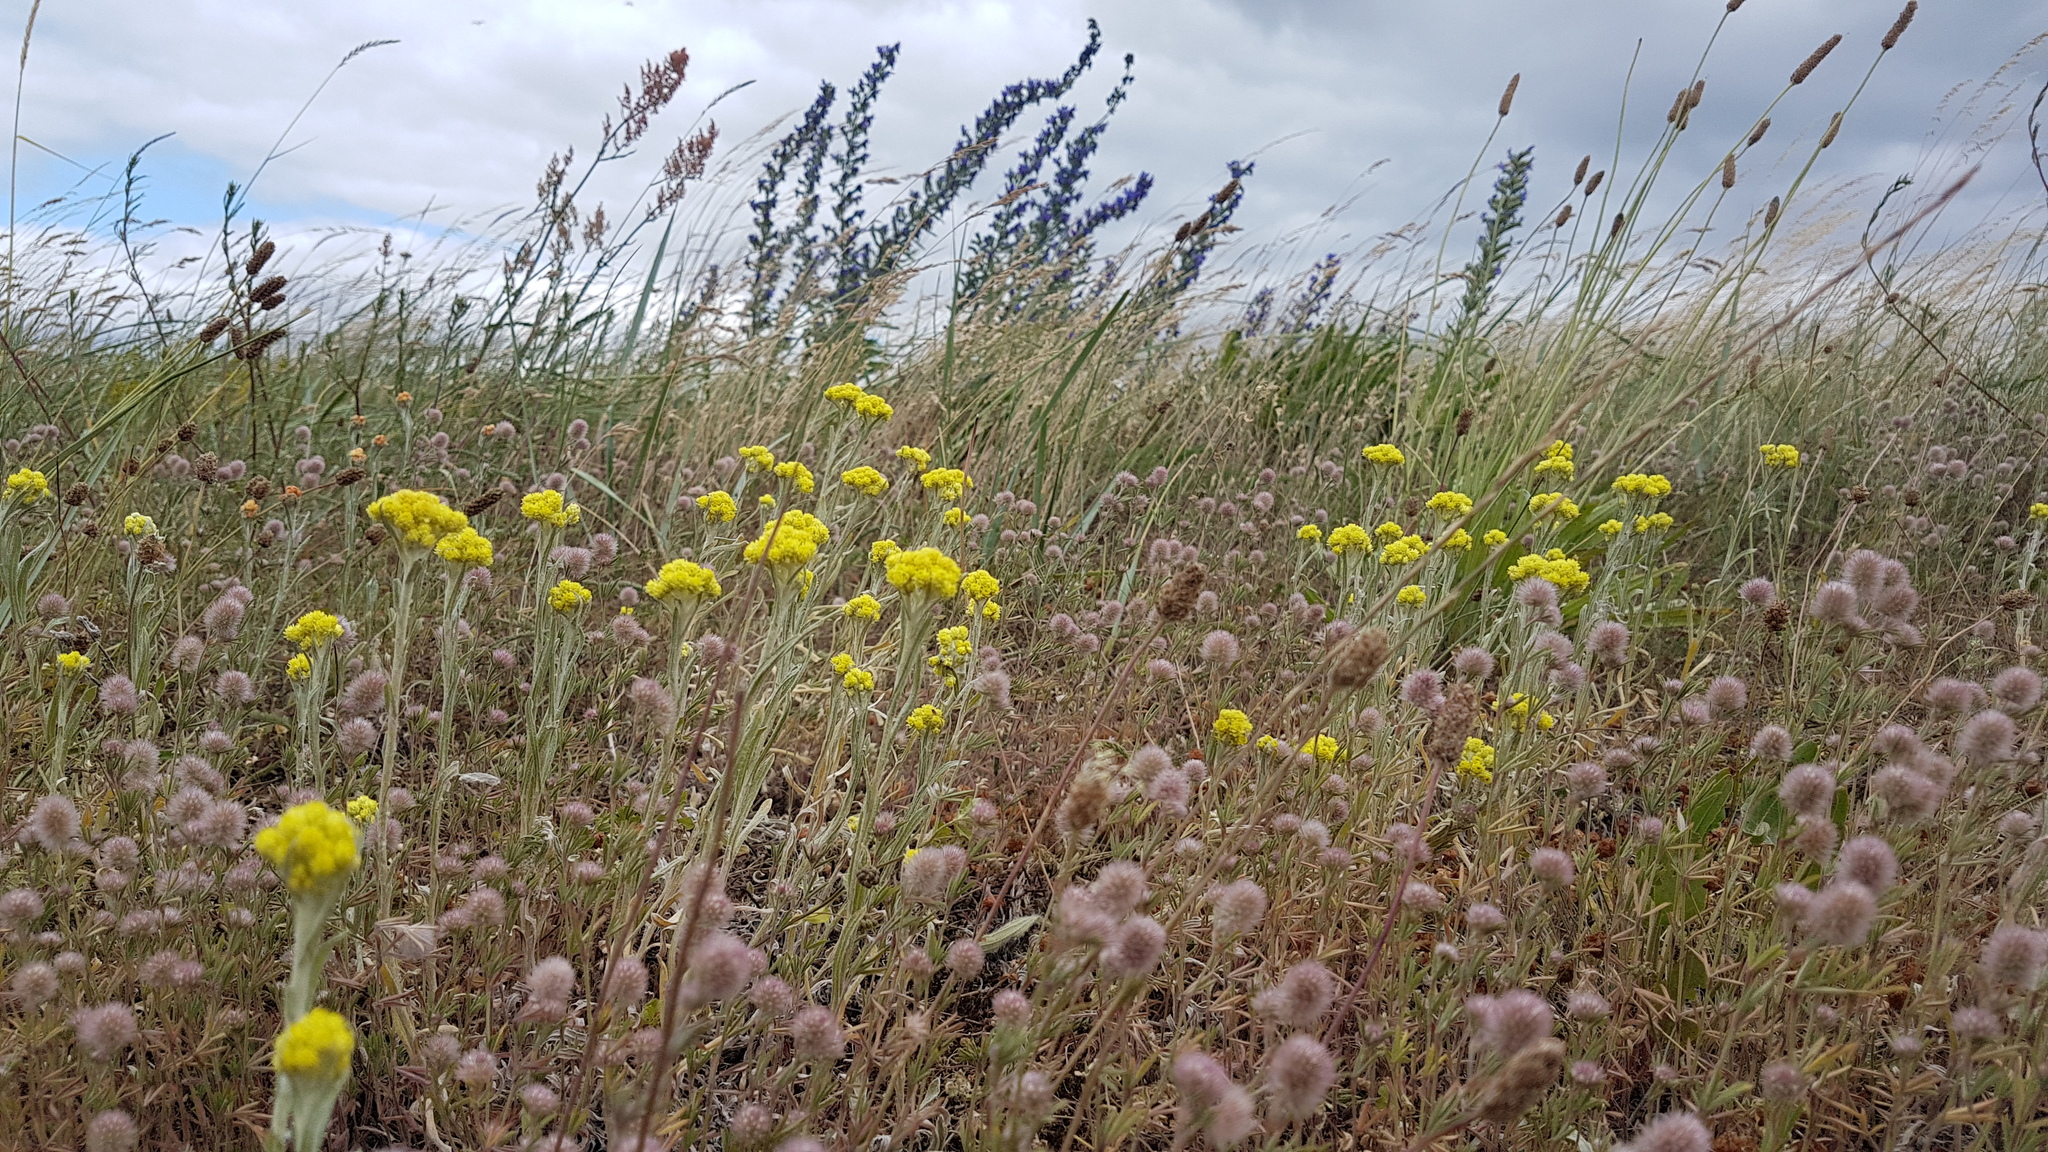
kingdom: Plantae
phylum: Tracheophyta
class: Magnoliopsida
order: Asterales
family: Asteraceae
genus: Helichrysum
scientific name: Helichrysum arenarium
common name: Strawflower
